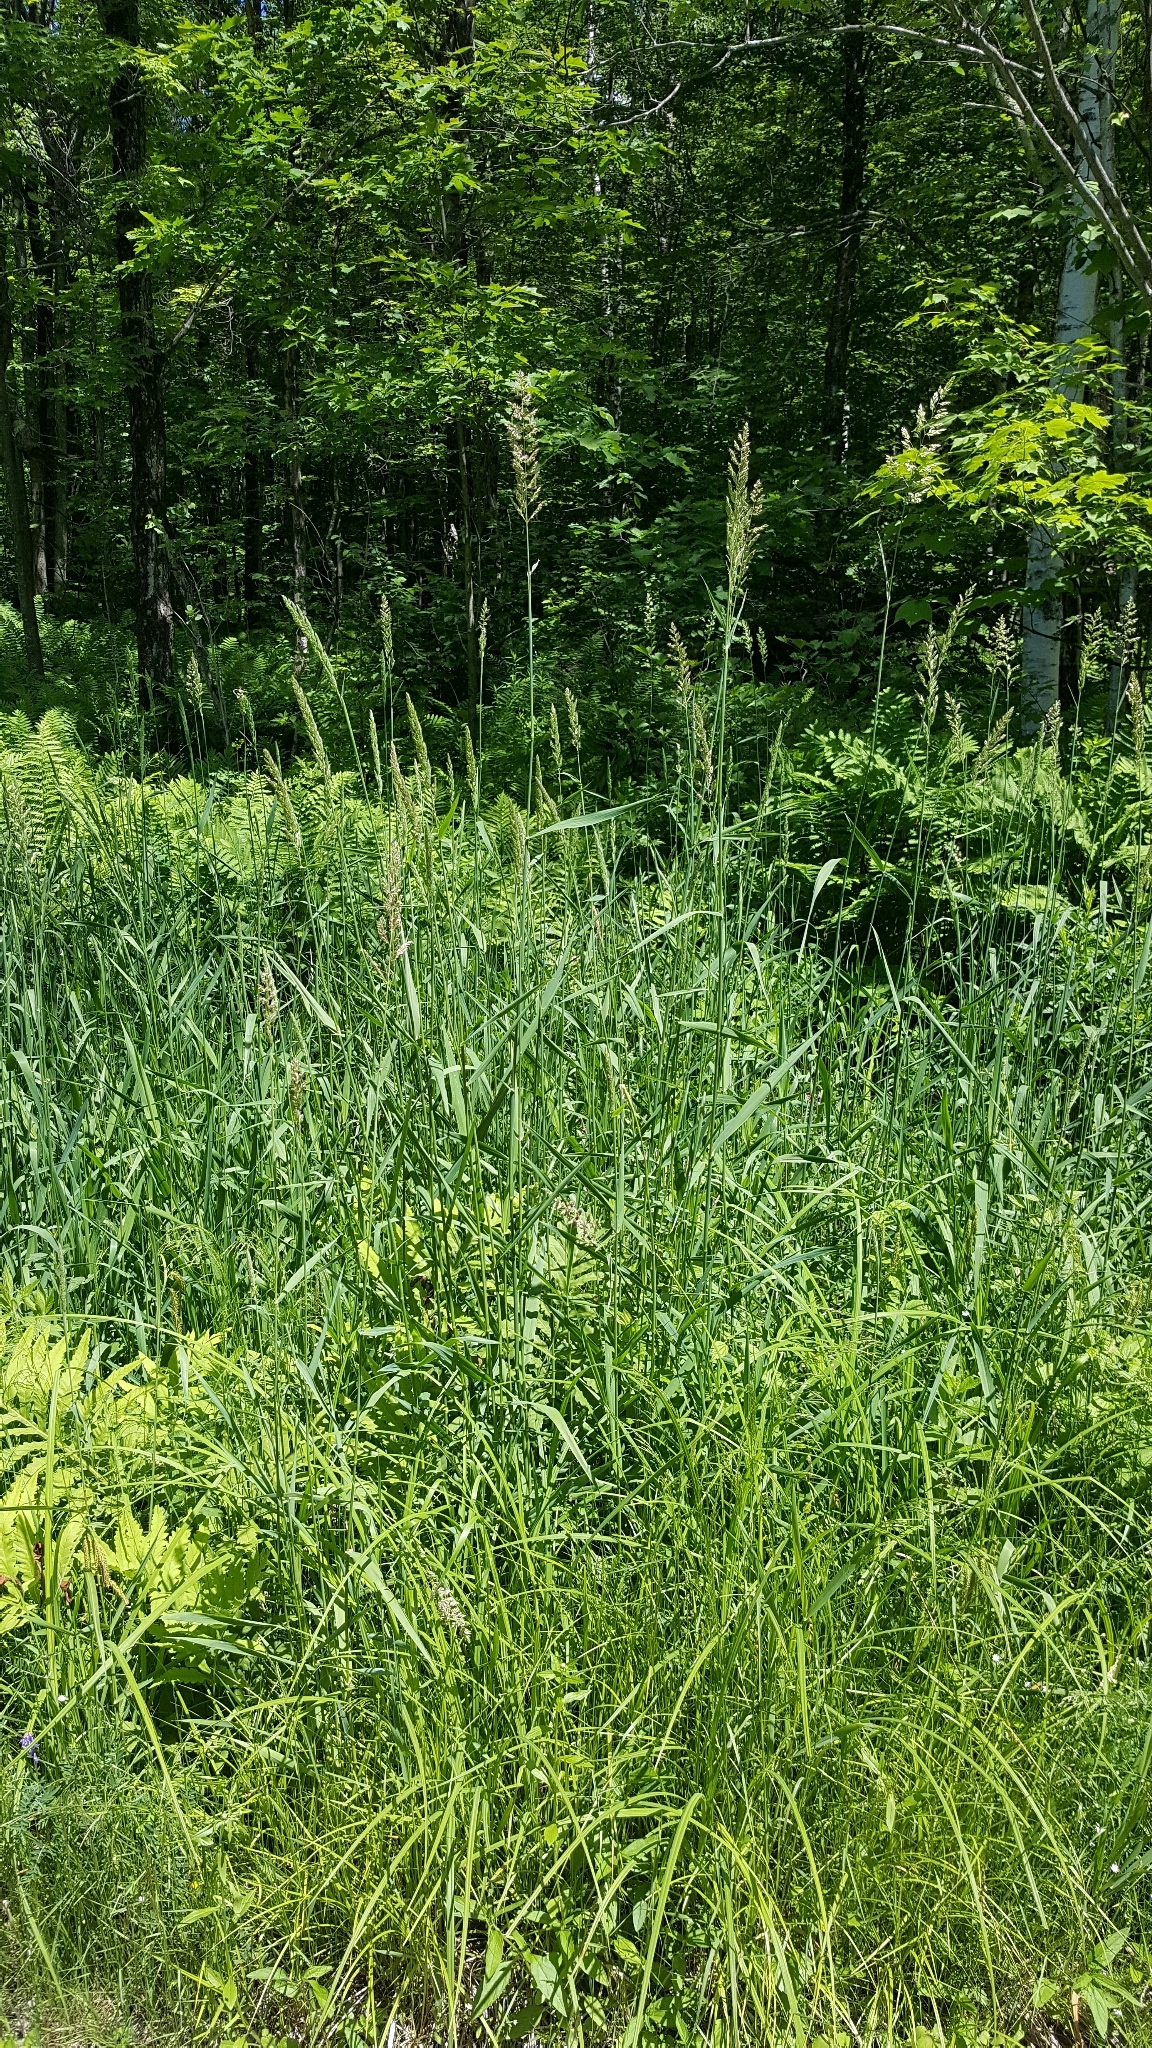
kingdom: Plantae
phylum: Tracheophyta
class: Liliopsida
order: Poales
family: Poaceae
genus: Phalaris
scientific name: Phalaris arundinacea
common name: Reed canary-grass
